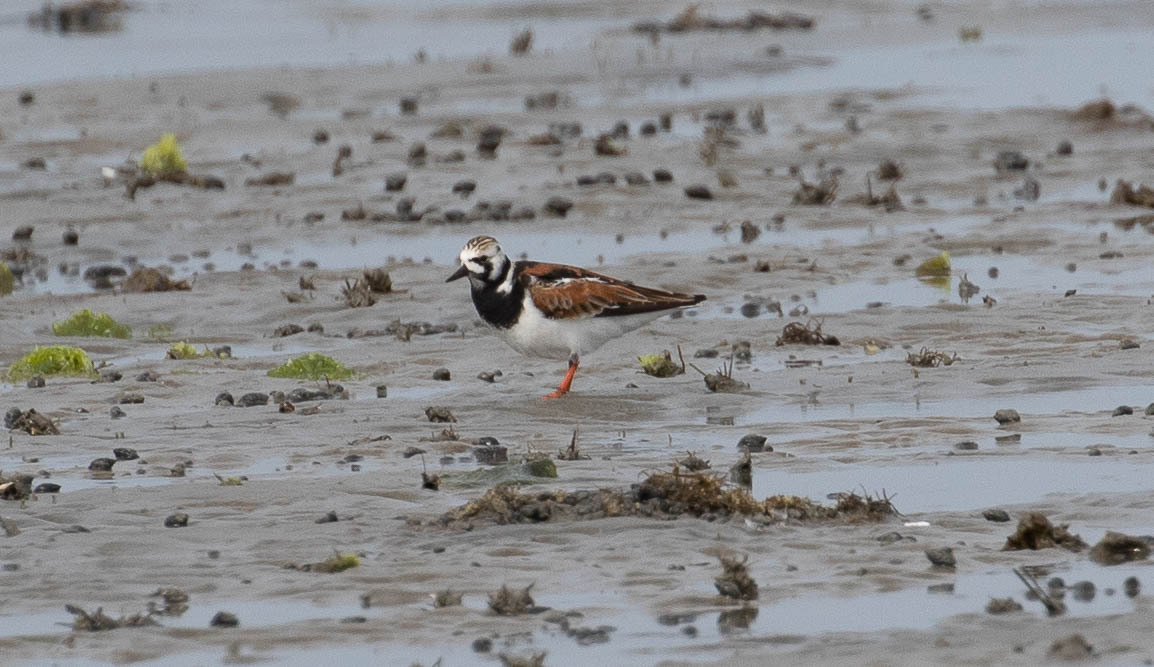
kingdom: Animalia
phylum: Chordata
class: Aves
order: Charadriiformes
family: Scolopacidae
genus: Arenaria
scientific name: Arenaria interpres
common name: Ruddy turnstone
